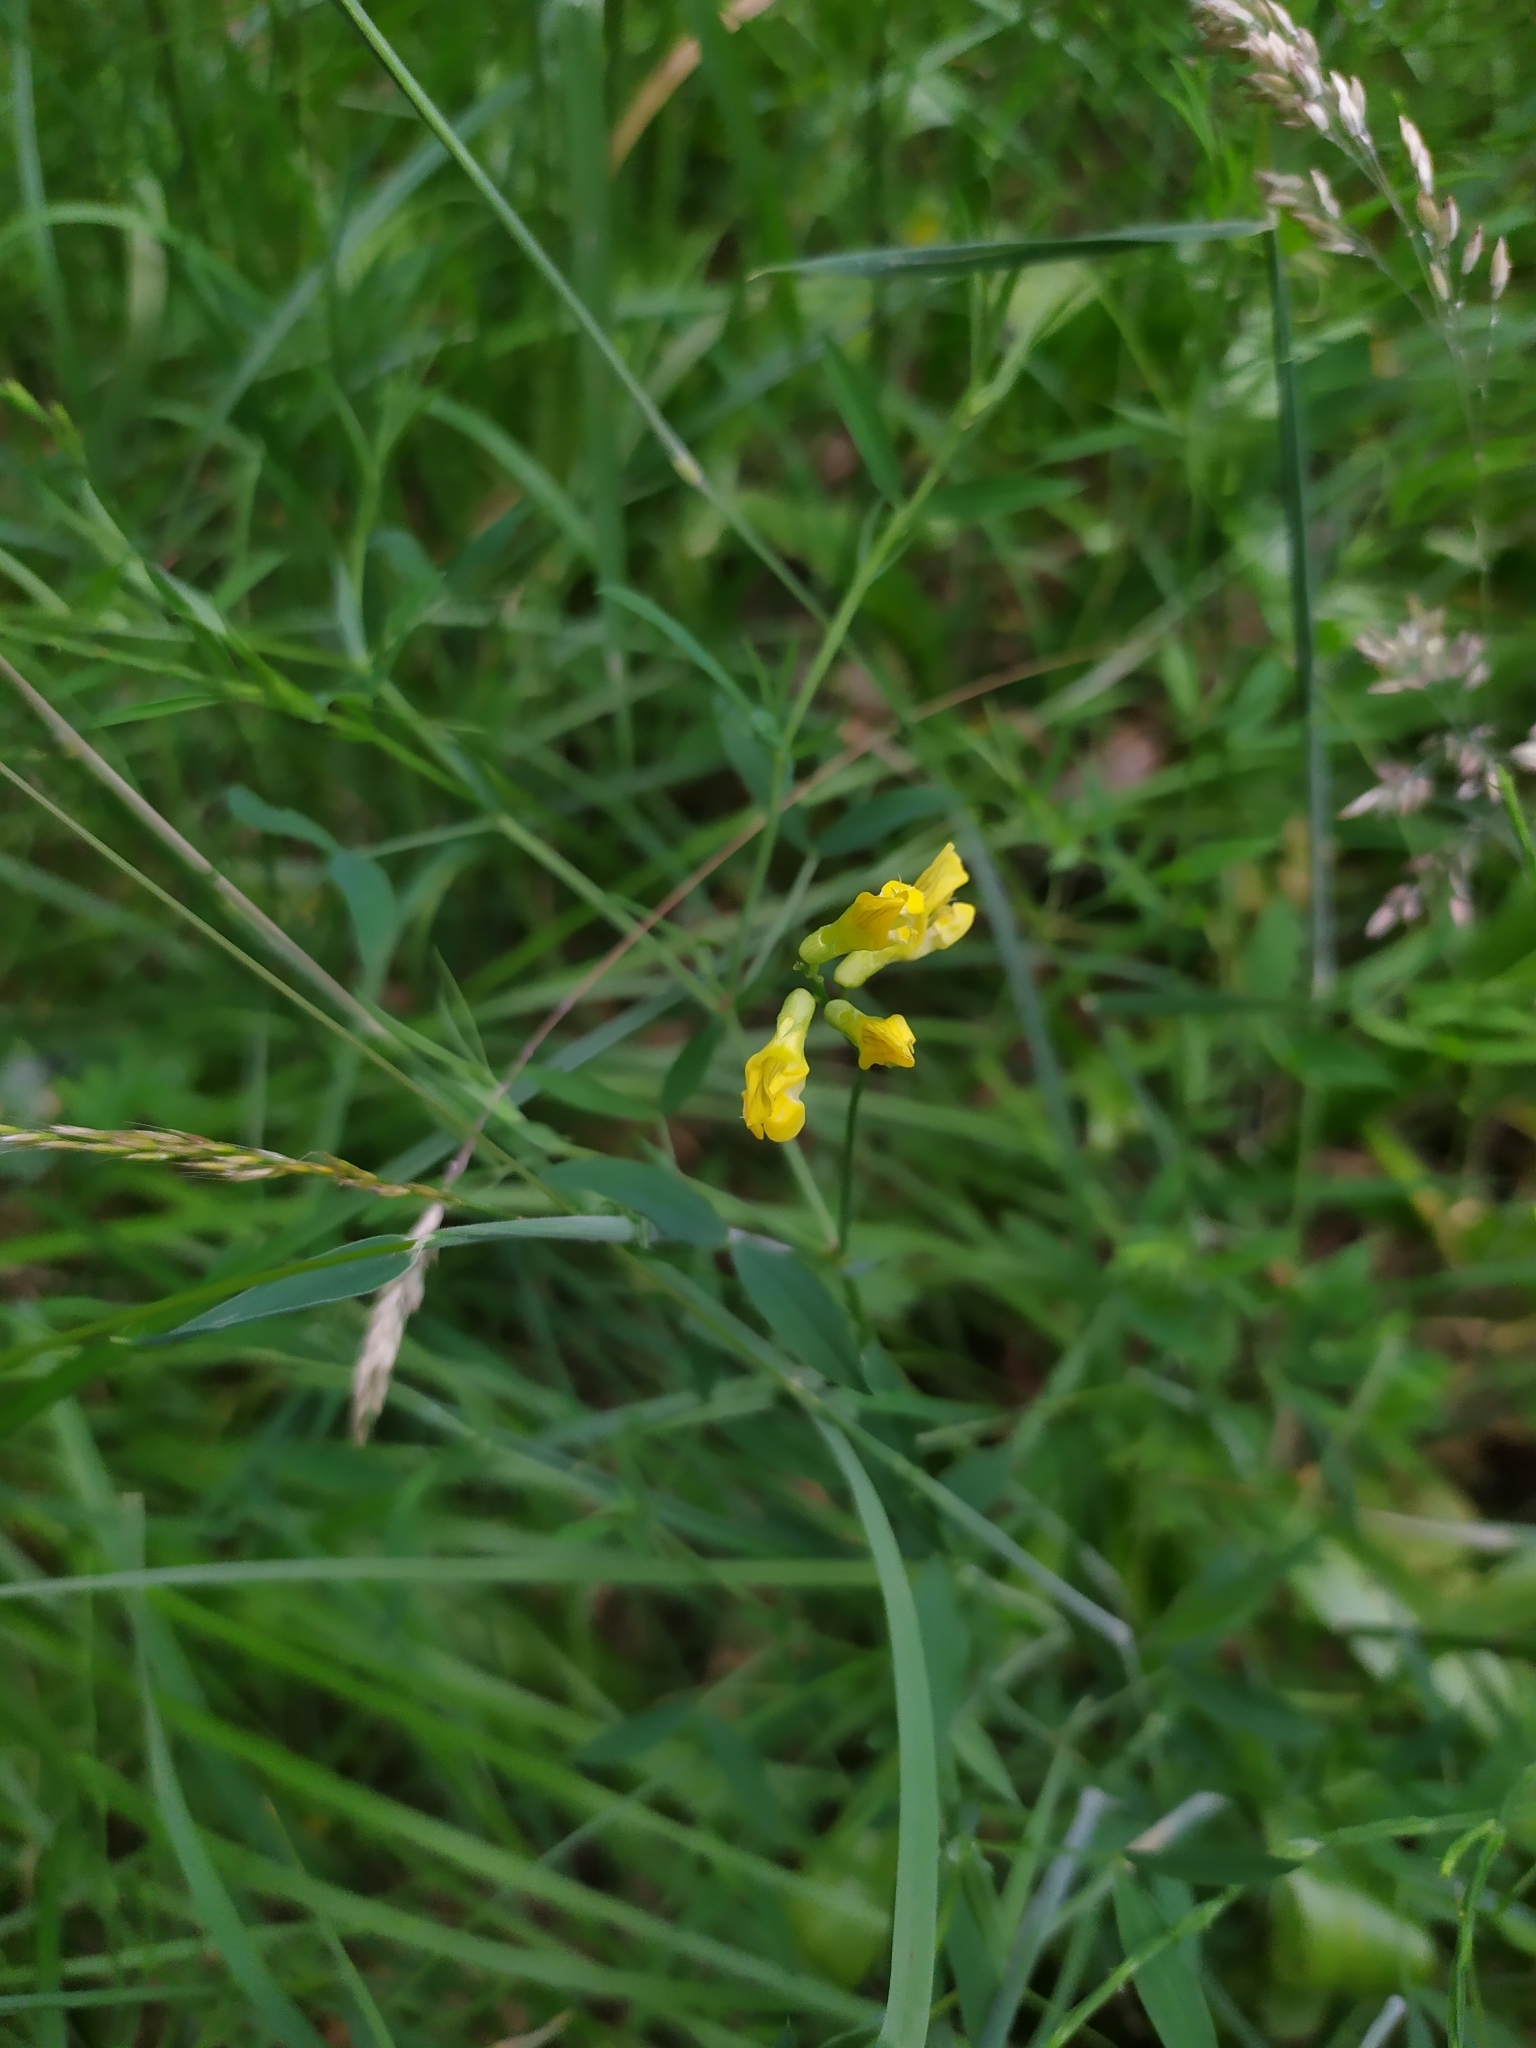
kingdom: Plantae
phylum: Tracheophyta
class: Magnoliopsida
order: Fabales
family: Fabaceae
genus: Lathyrus
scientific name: Lathyrus pratensis
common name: Meadow vetchling
